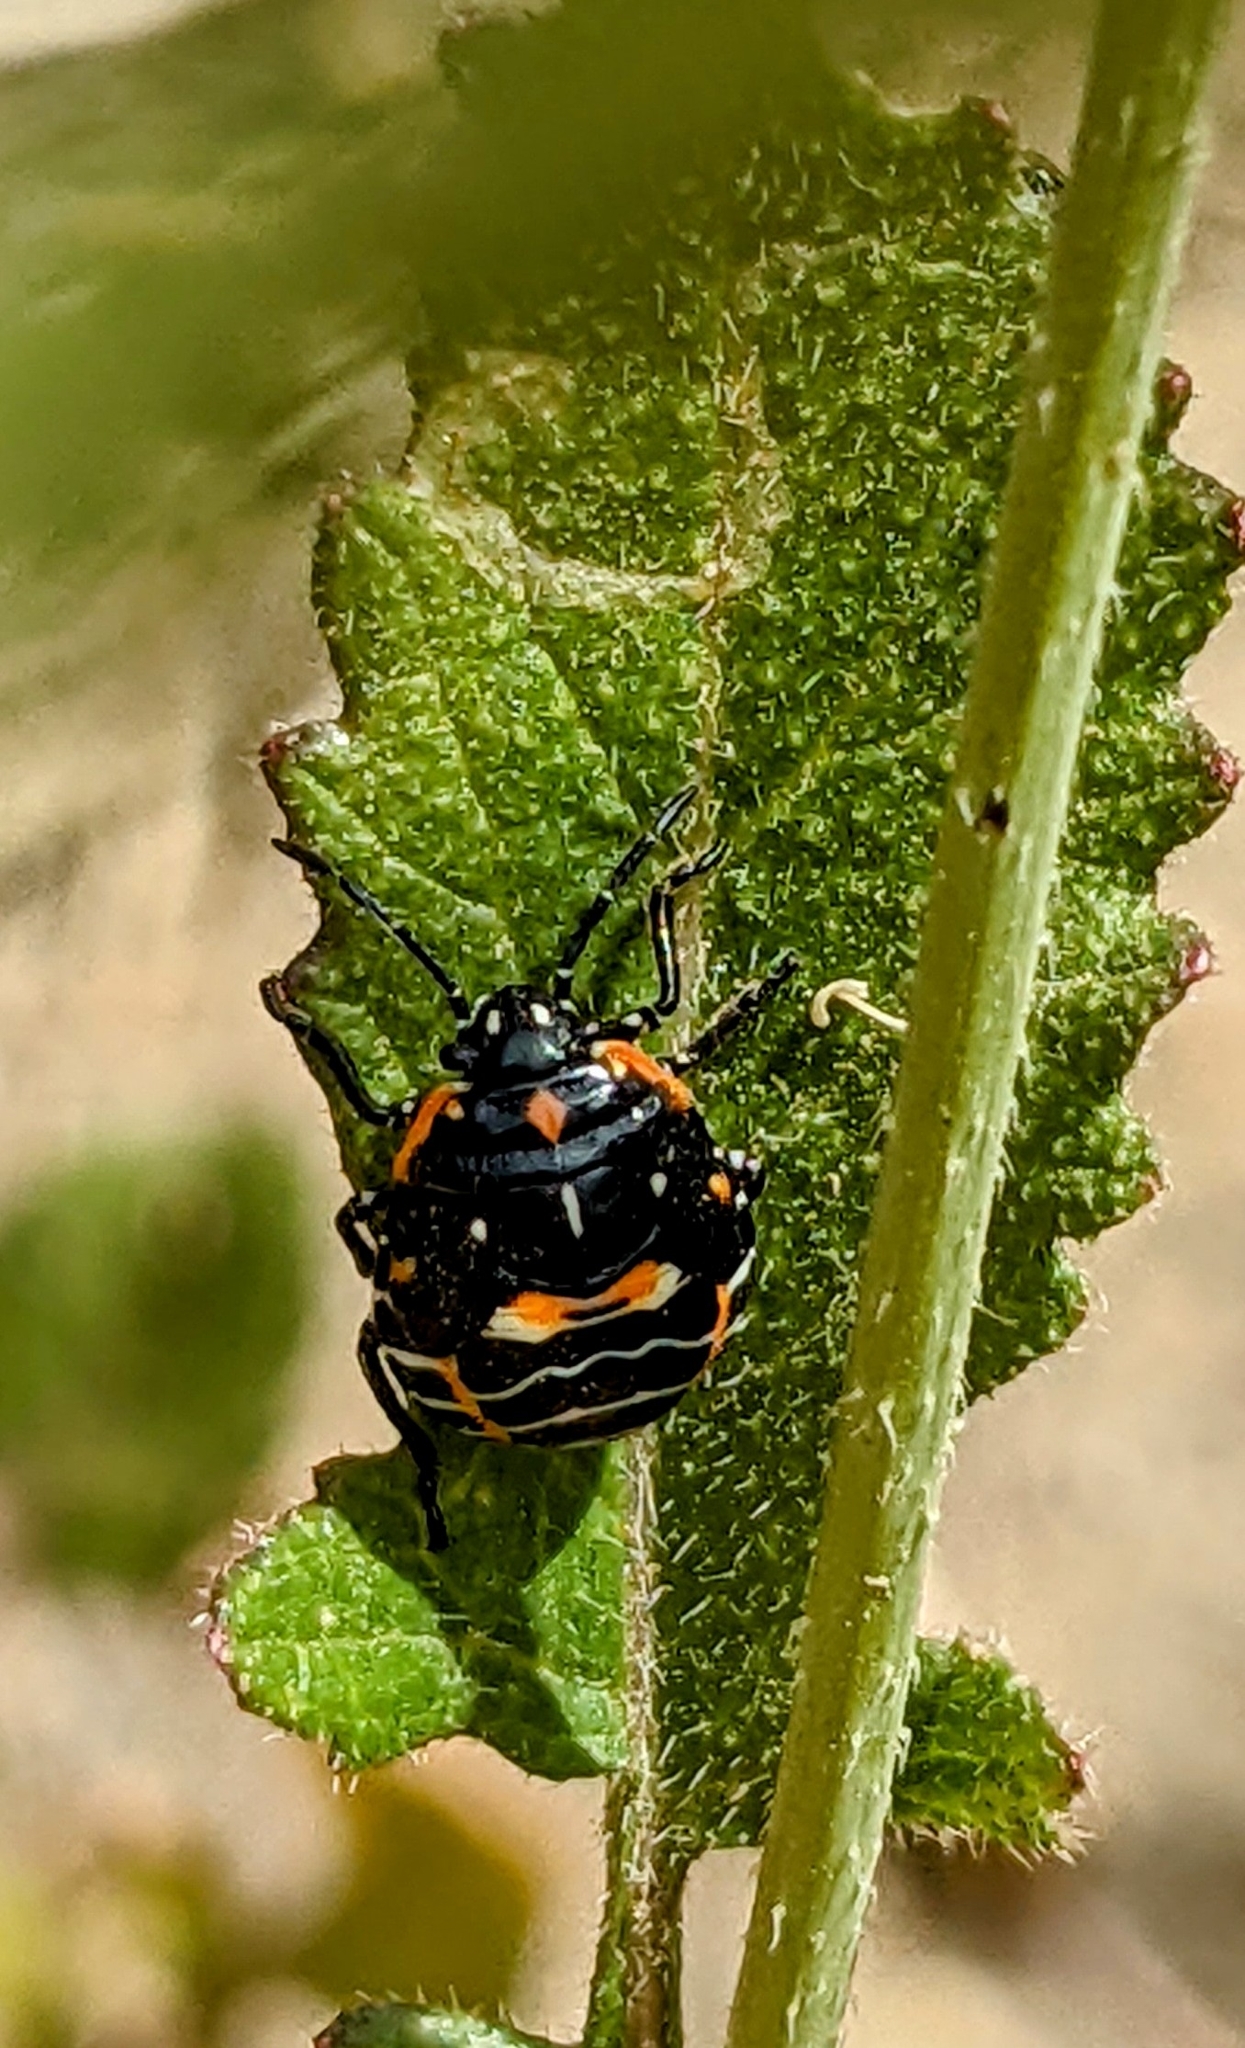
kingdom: Animalia
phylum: Arthropoda
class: Insecta
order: Hemiptera
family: Pentatomidae
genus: Murgantia
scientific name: Murgantia histrionica
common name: Harlequin bug
